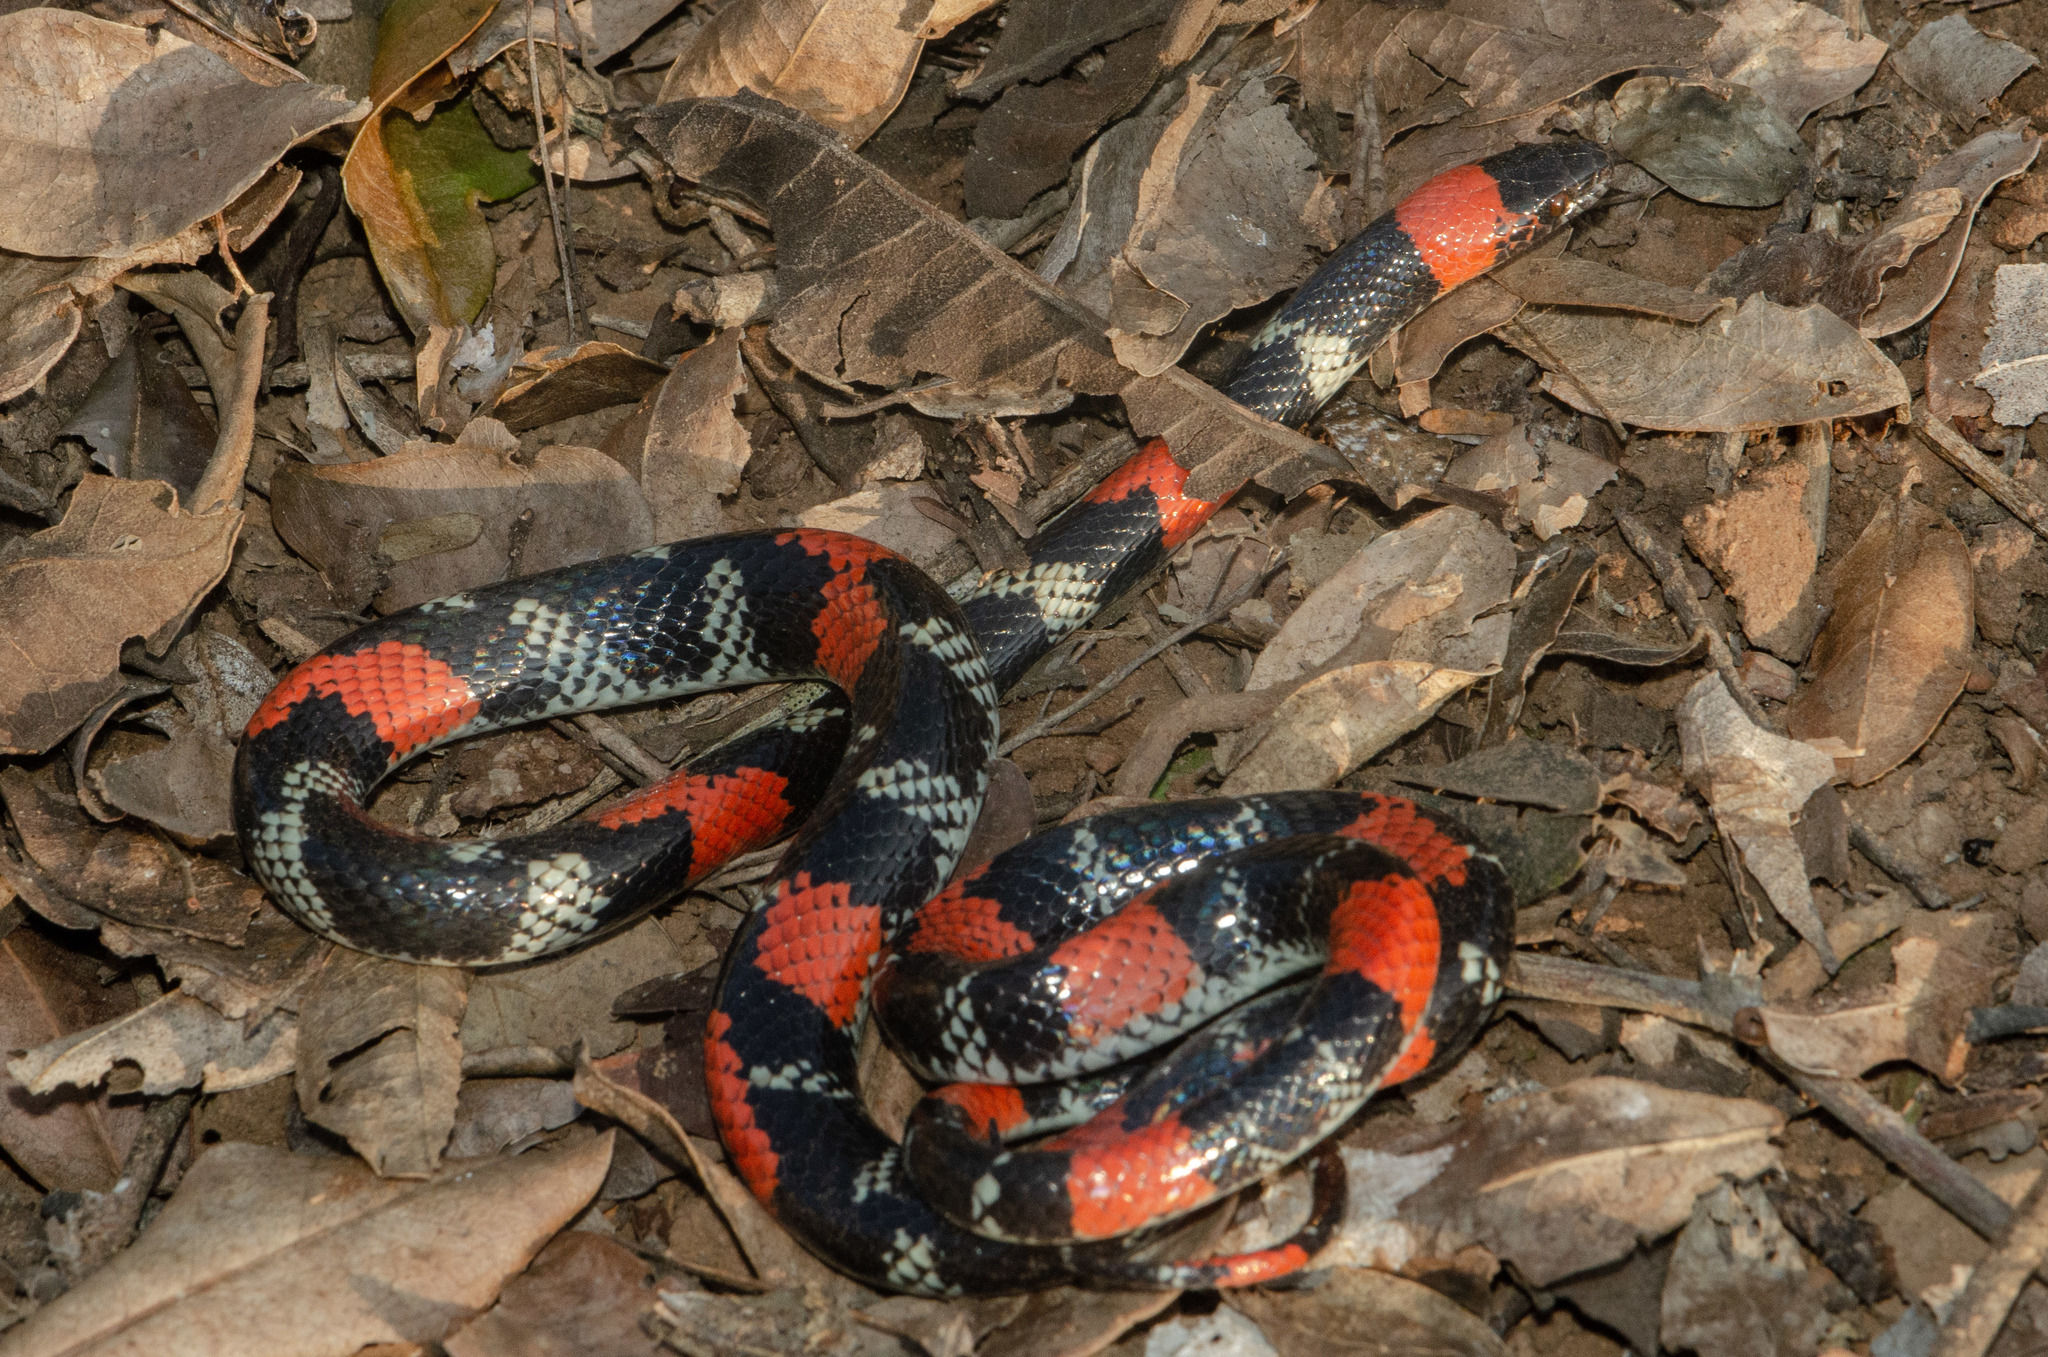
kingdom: Animalia
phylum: Chordata
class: Squamata
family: Colubridae
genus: Oxyrhopus
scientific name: Oxyrhopus trigeminus
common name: Brazilian false coral snake
